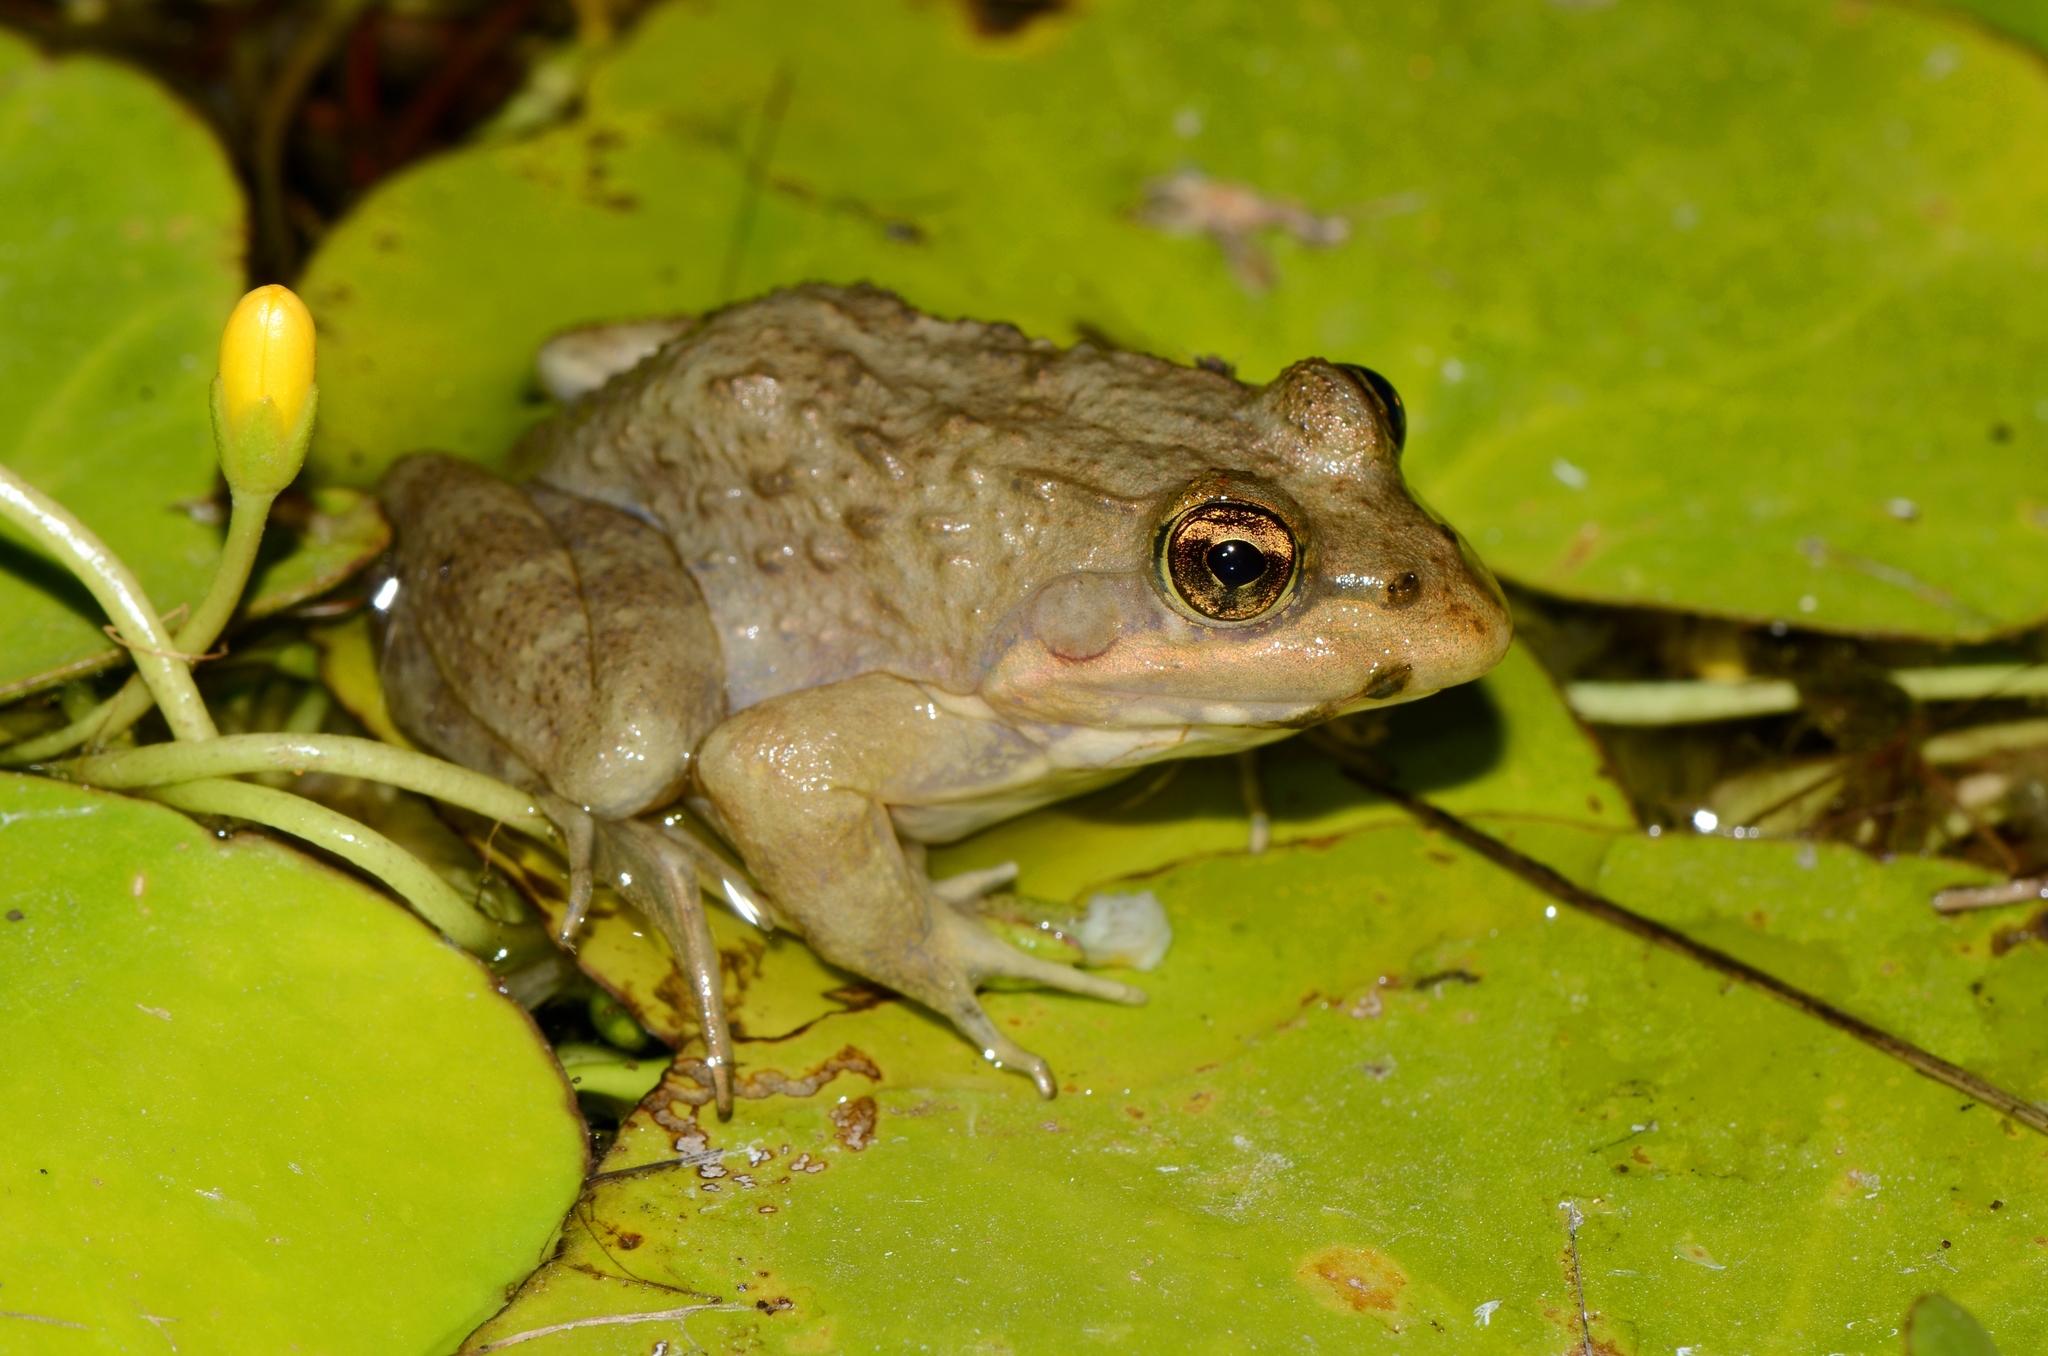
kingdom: Animalia
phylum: Chordata
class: Amphibia
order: Anura
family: Pyxicephalidae
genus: Amietia
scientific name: Amietia fuscigula
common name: Cape rana
